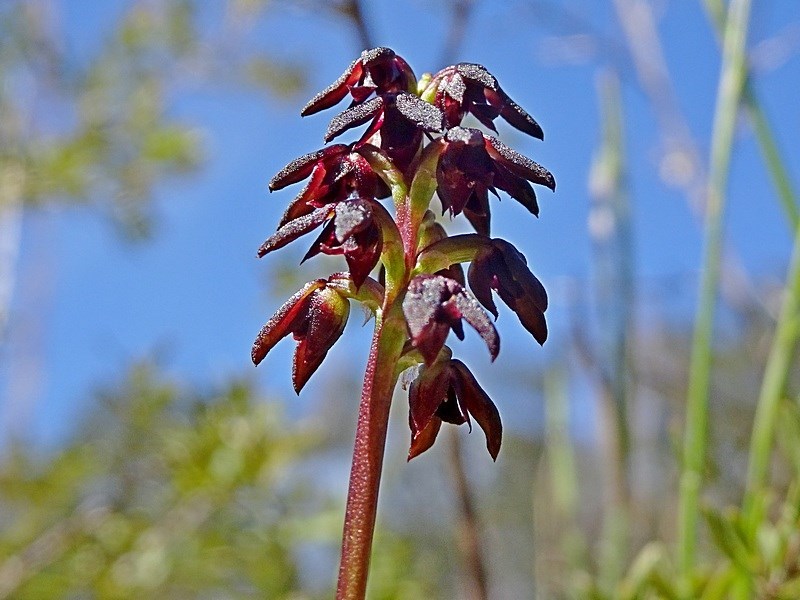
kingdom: Plantae
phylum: Tracheophyta
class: Liliopsida
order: Asparagales
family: Orchidaceae
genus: Genoplesium
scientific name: Genoplesium vernale
